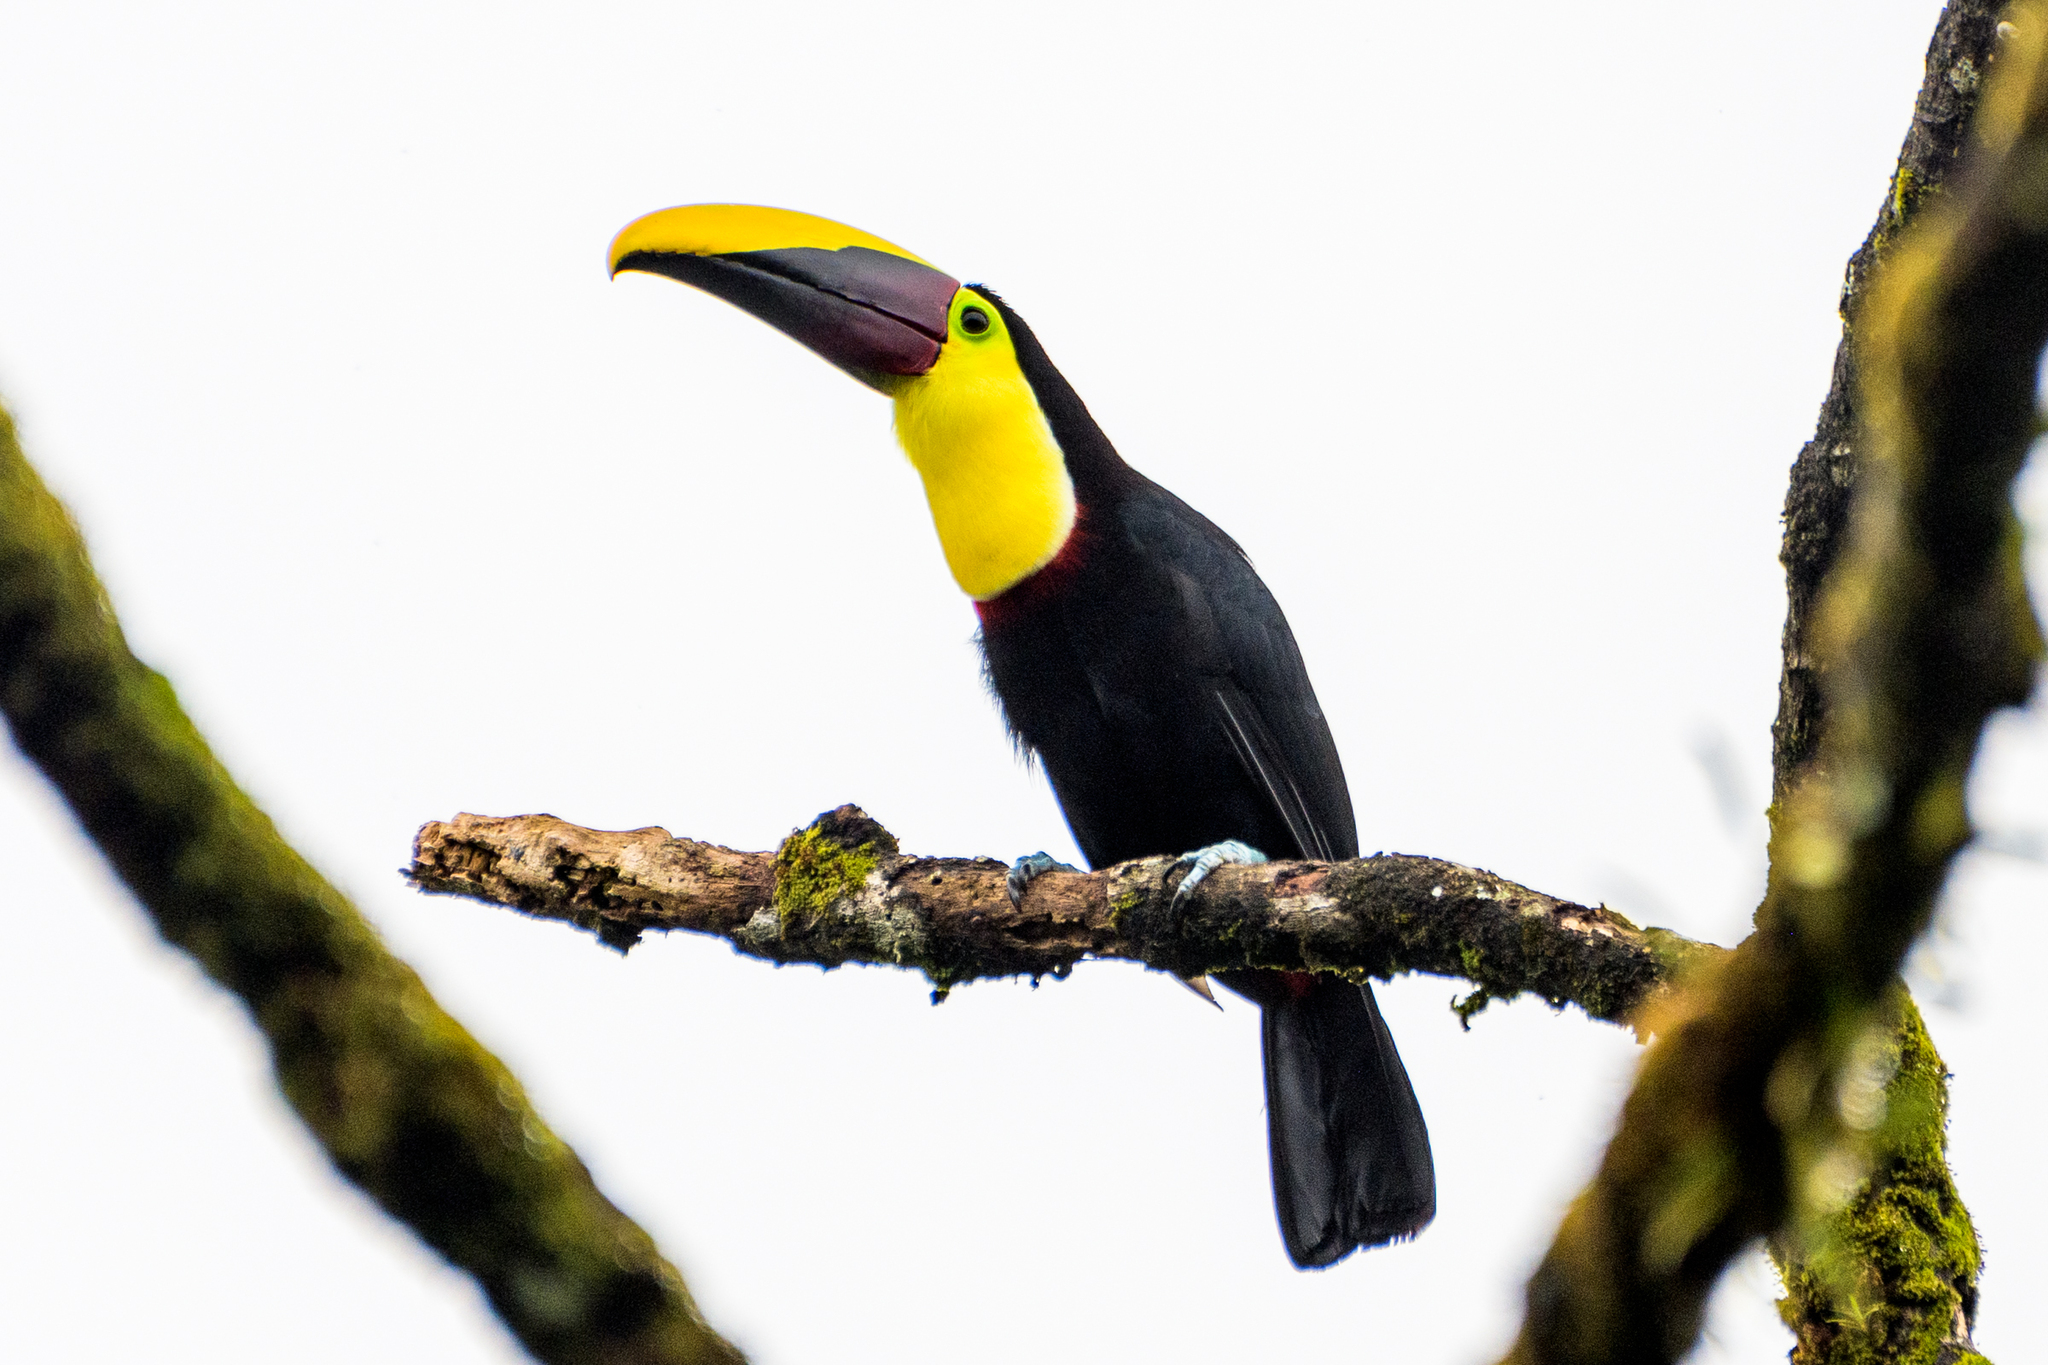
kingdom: Animalia
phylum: Chordata
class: Aves
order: Piciformes
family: Ramphastidae
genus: Ramphastos
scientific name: Ramphastos ambiguus
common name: Yellow-throated toucan
